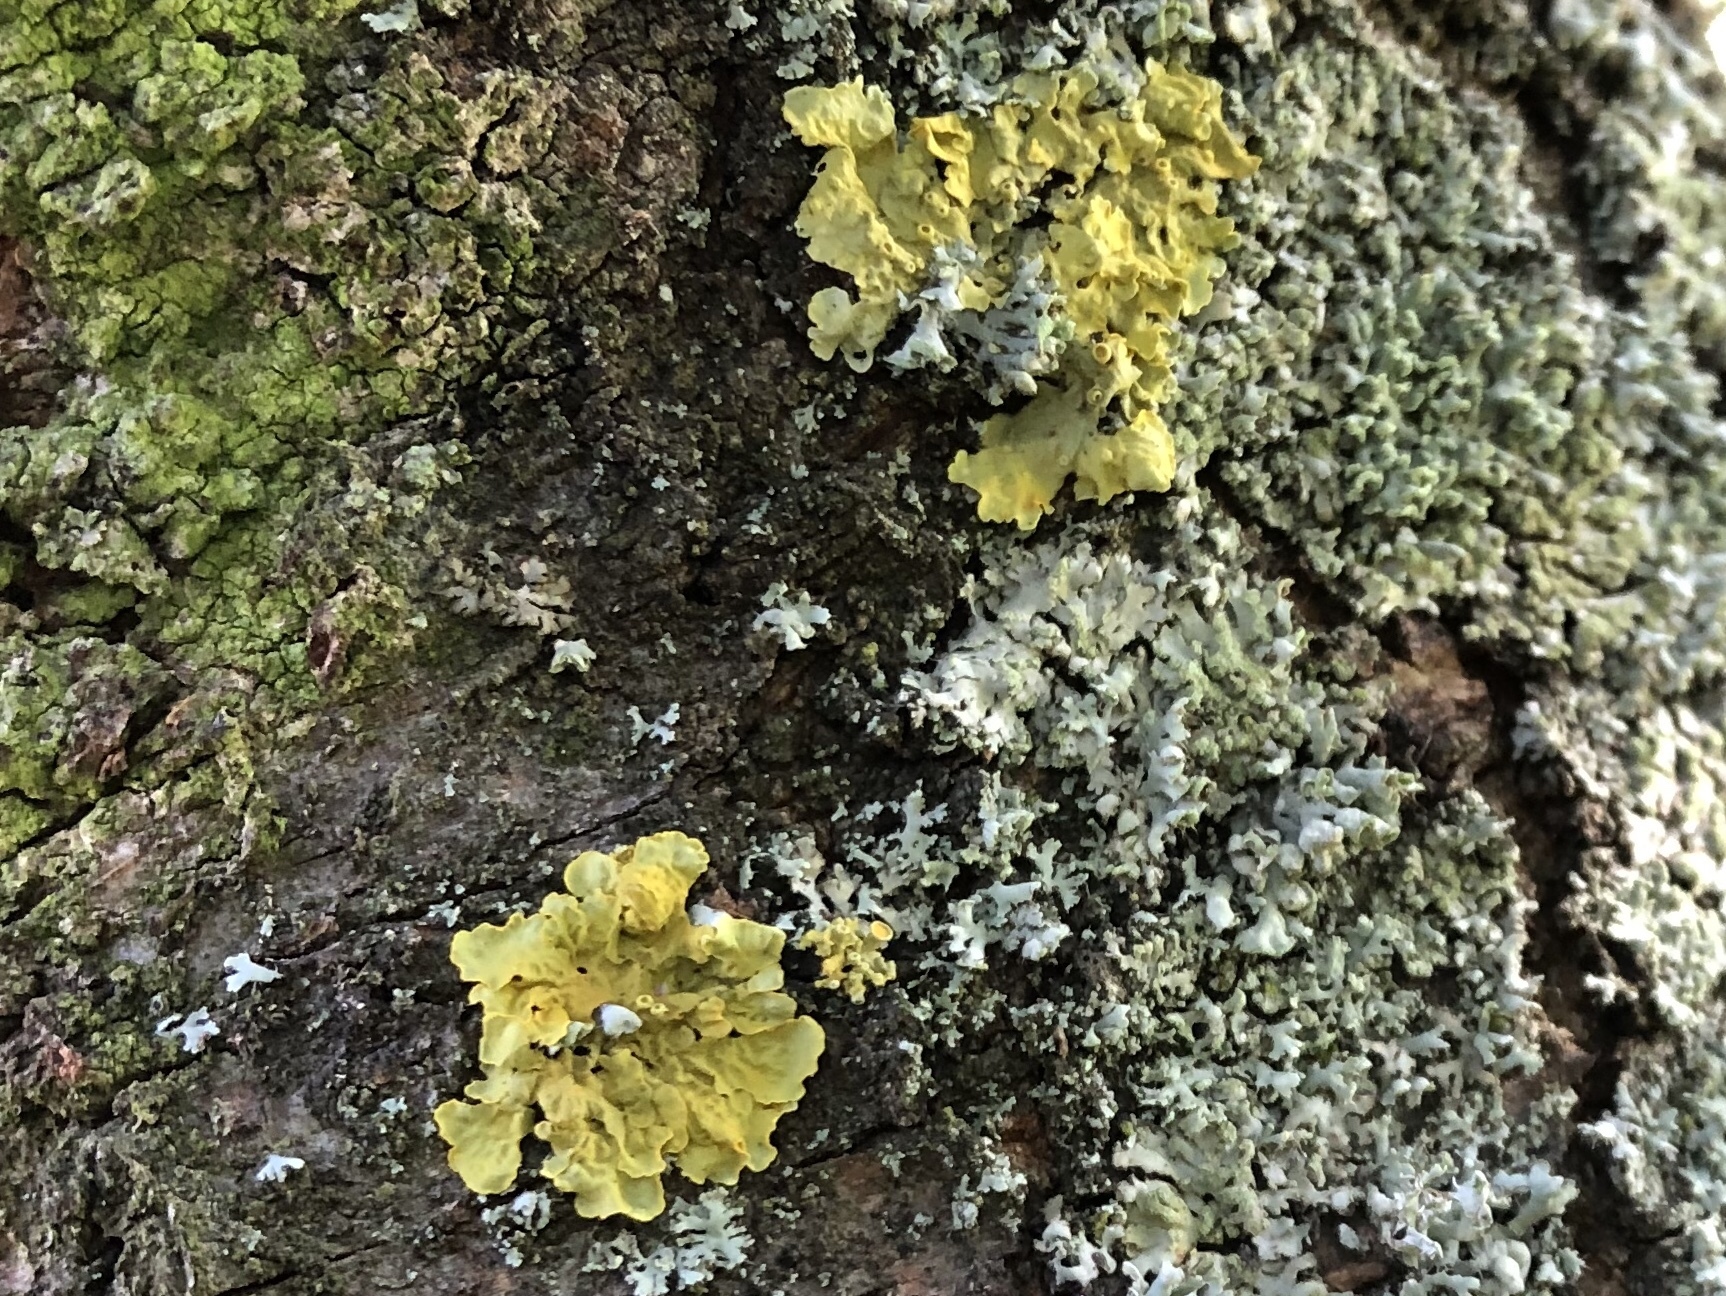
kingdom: Fungi
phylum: Ascomycota
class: Lecanoromycetes
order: Teloschistales
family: Teloschistaceae
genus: Xanthoria
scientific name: Xanthoria parietina
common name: Common orange lichen
